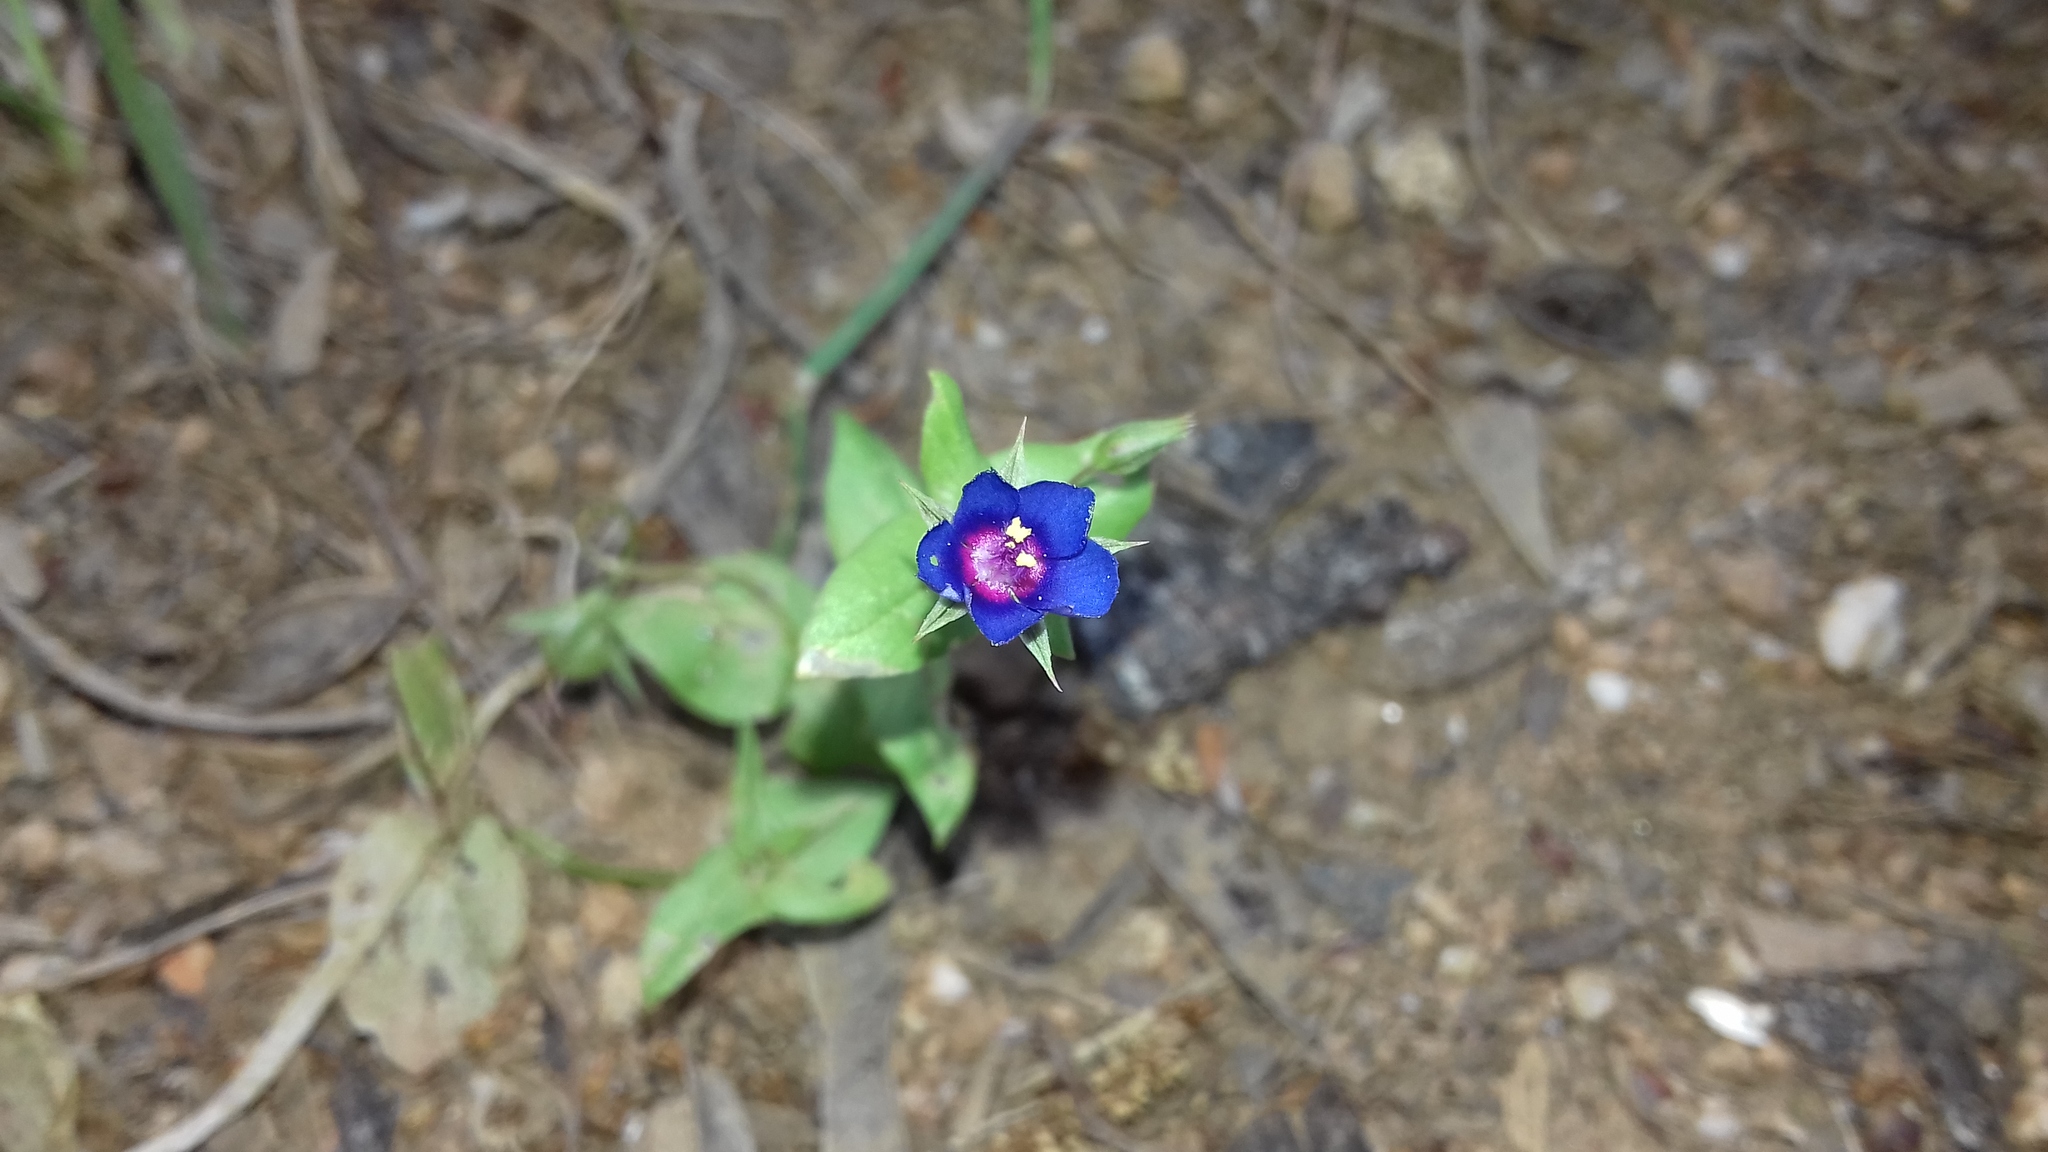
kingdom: Plantae
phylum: Tracheophyta
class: Magnoliopsida
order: Ericales
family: Primulaceae
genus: Lysimachia
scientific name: Lysimachia loeflingii
